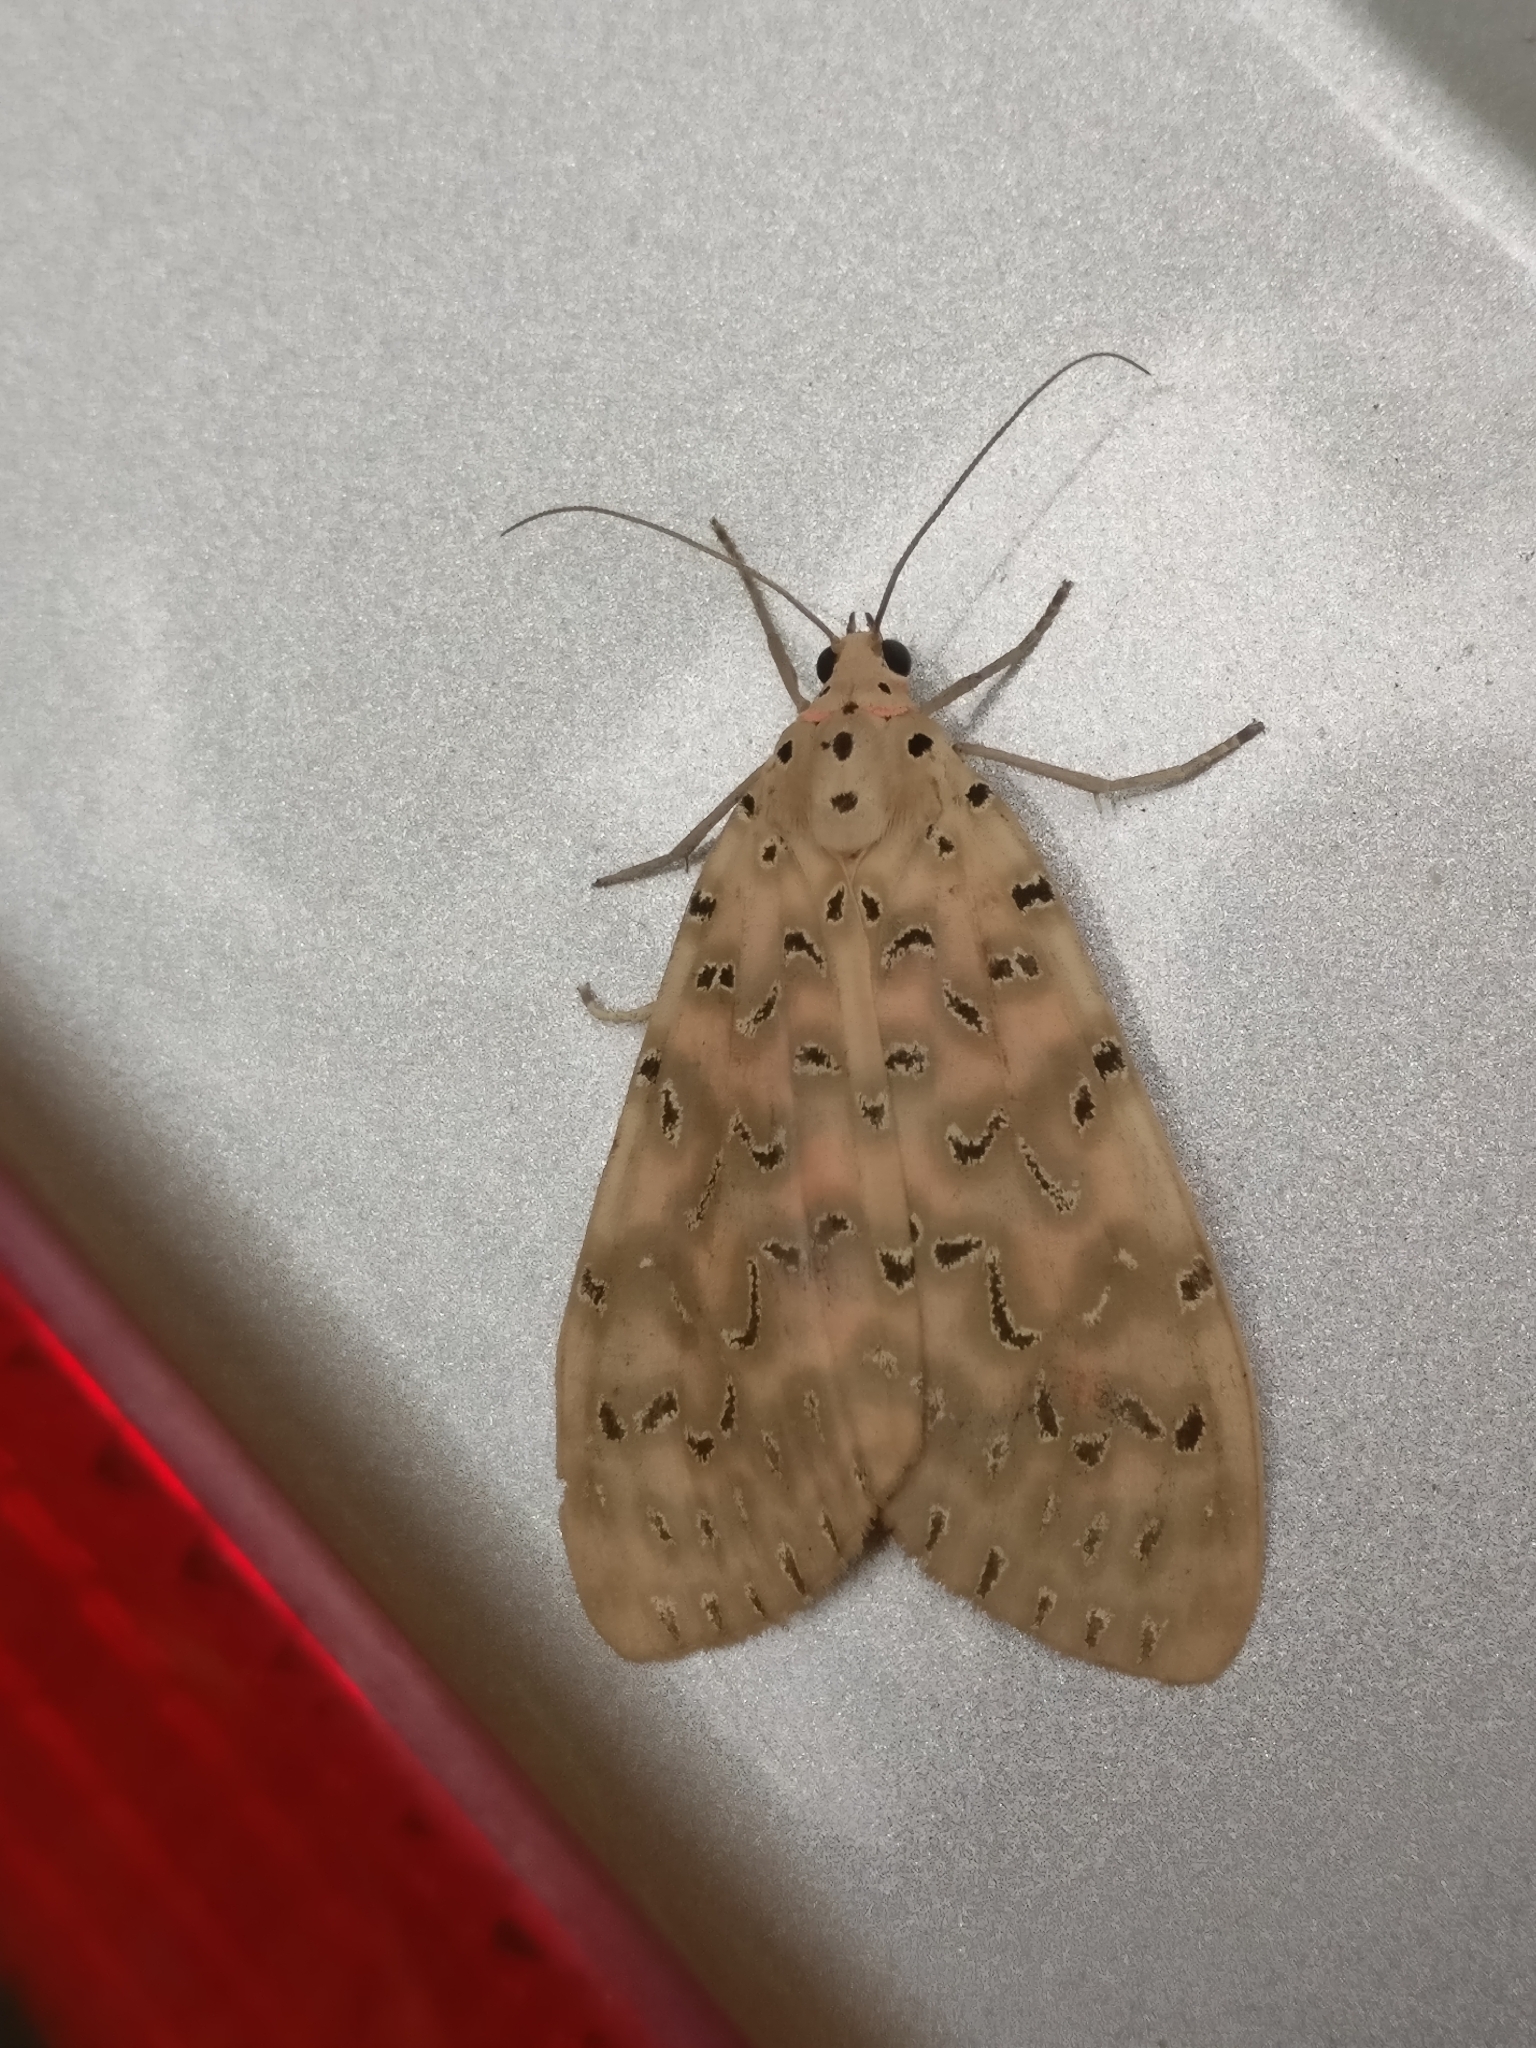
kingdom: Animalia
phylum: Arthropoda
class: Insecta
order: Lepidoptera
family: Erebidae
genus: Mangina
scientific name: Mangina argus
